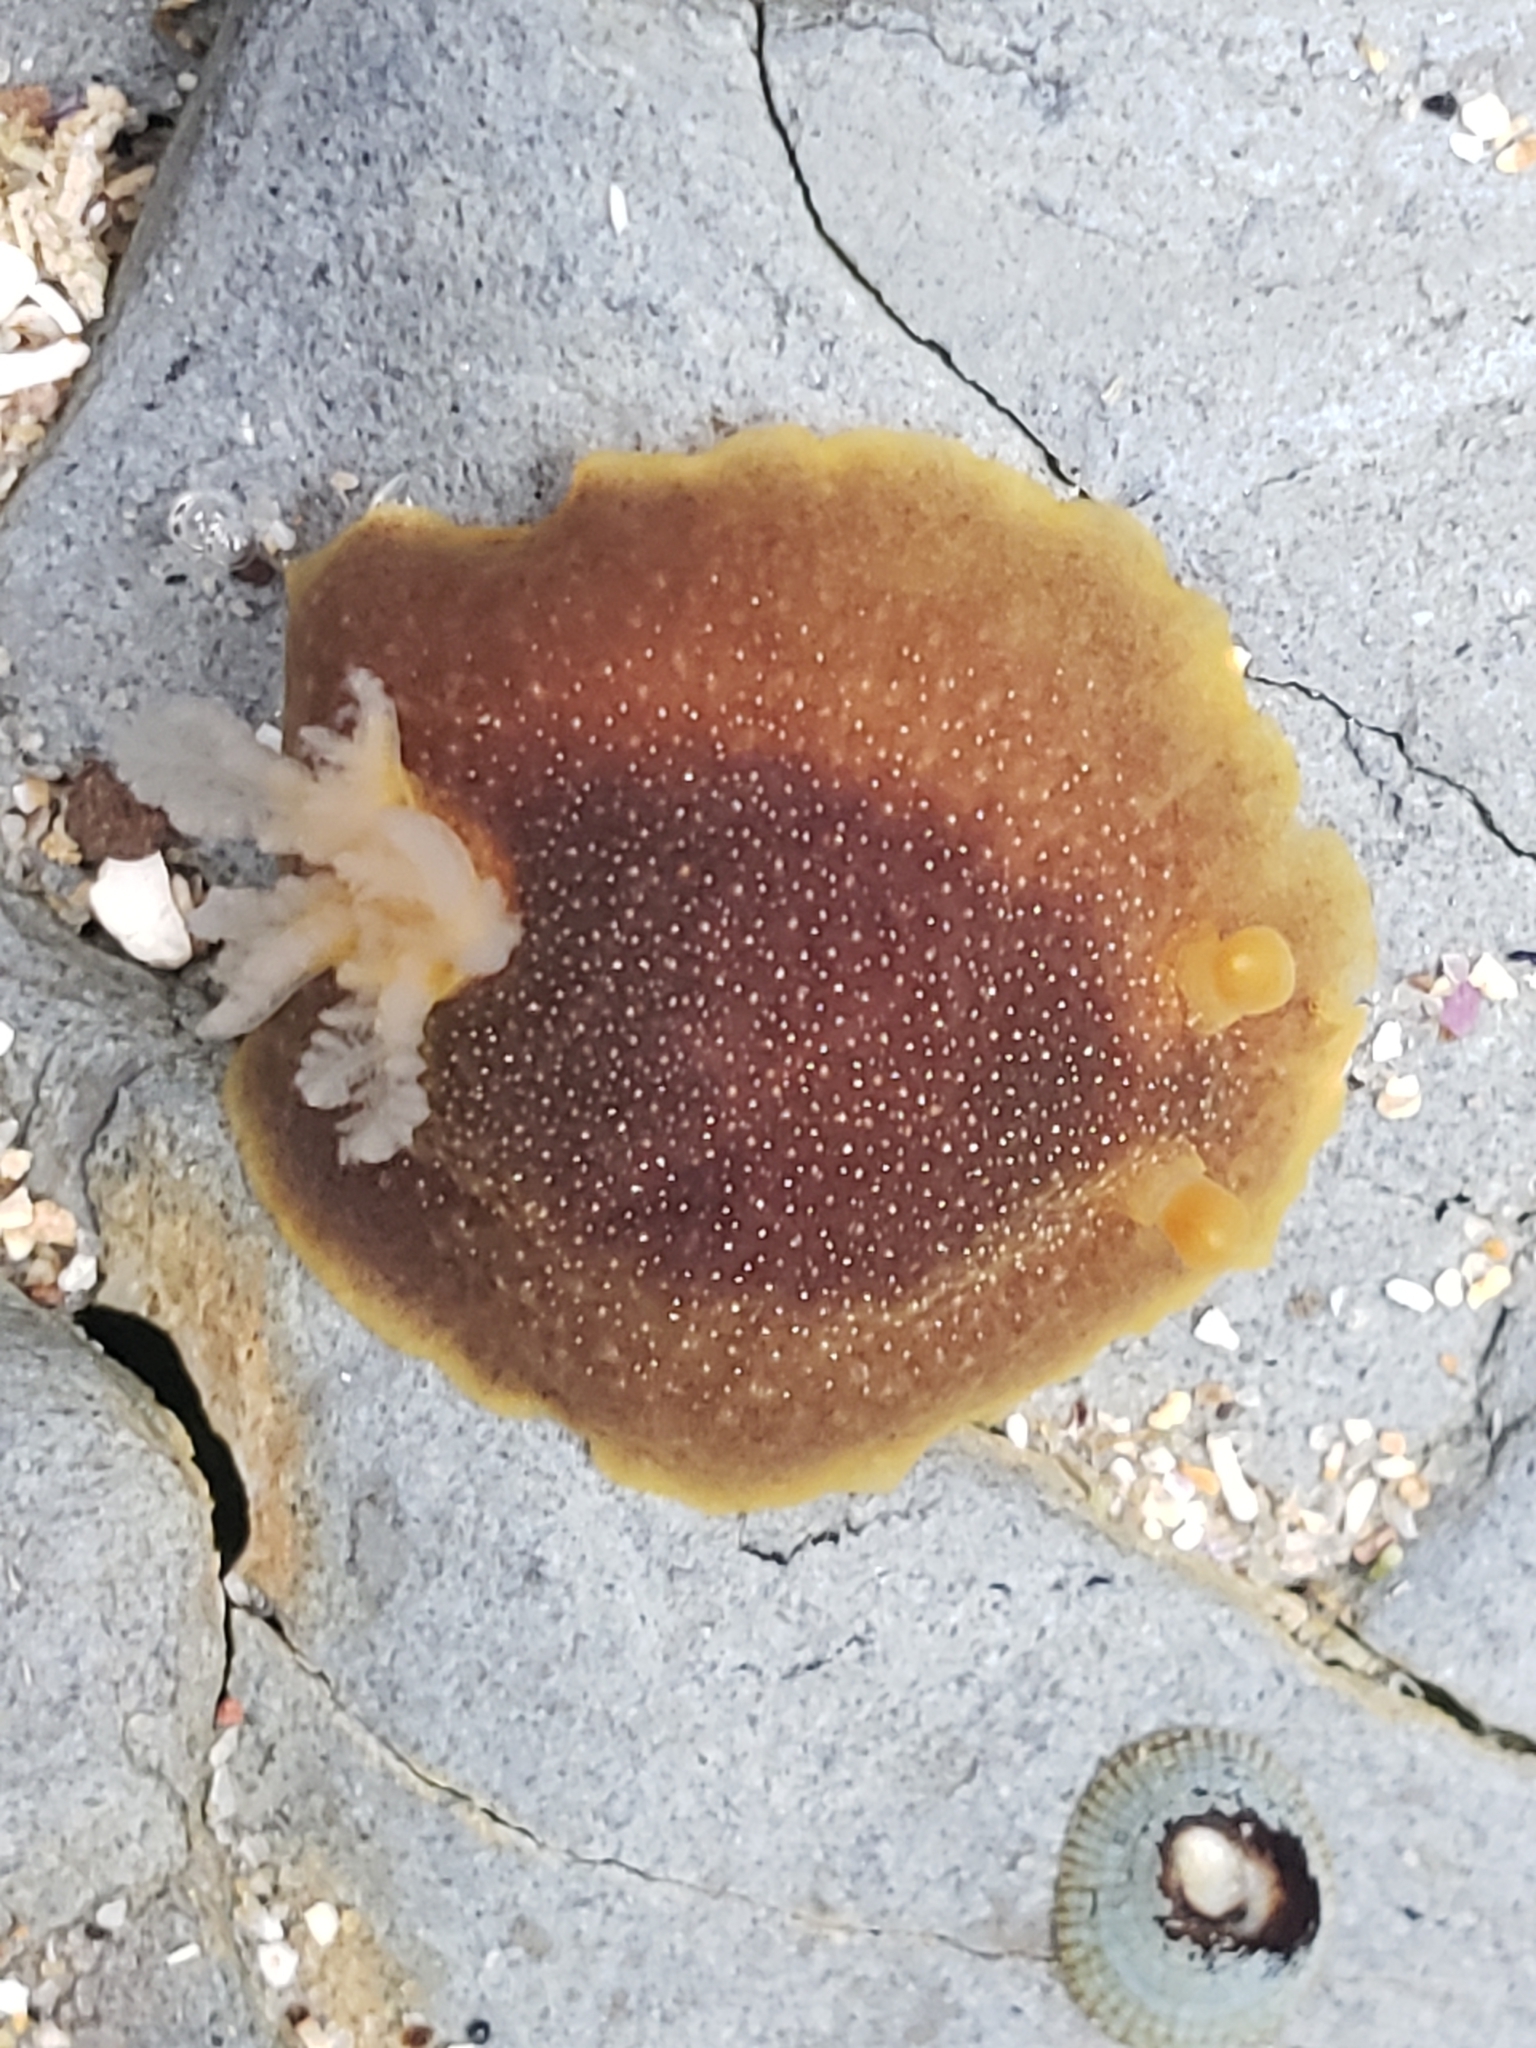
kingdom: Animalia
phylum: Mollusca
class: Gastropoda
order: Nudibranchia
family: Dendrodorididae
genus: Doriopsilla
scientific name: Doriopsilla albopunctata
